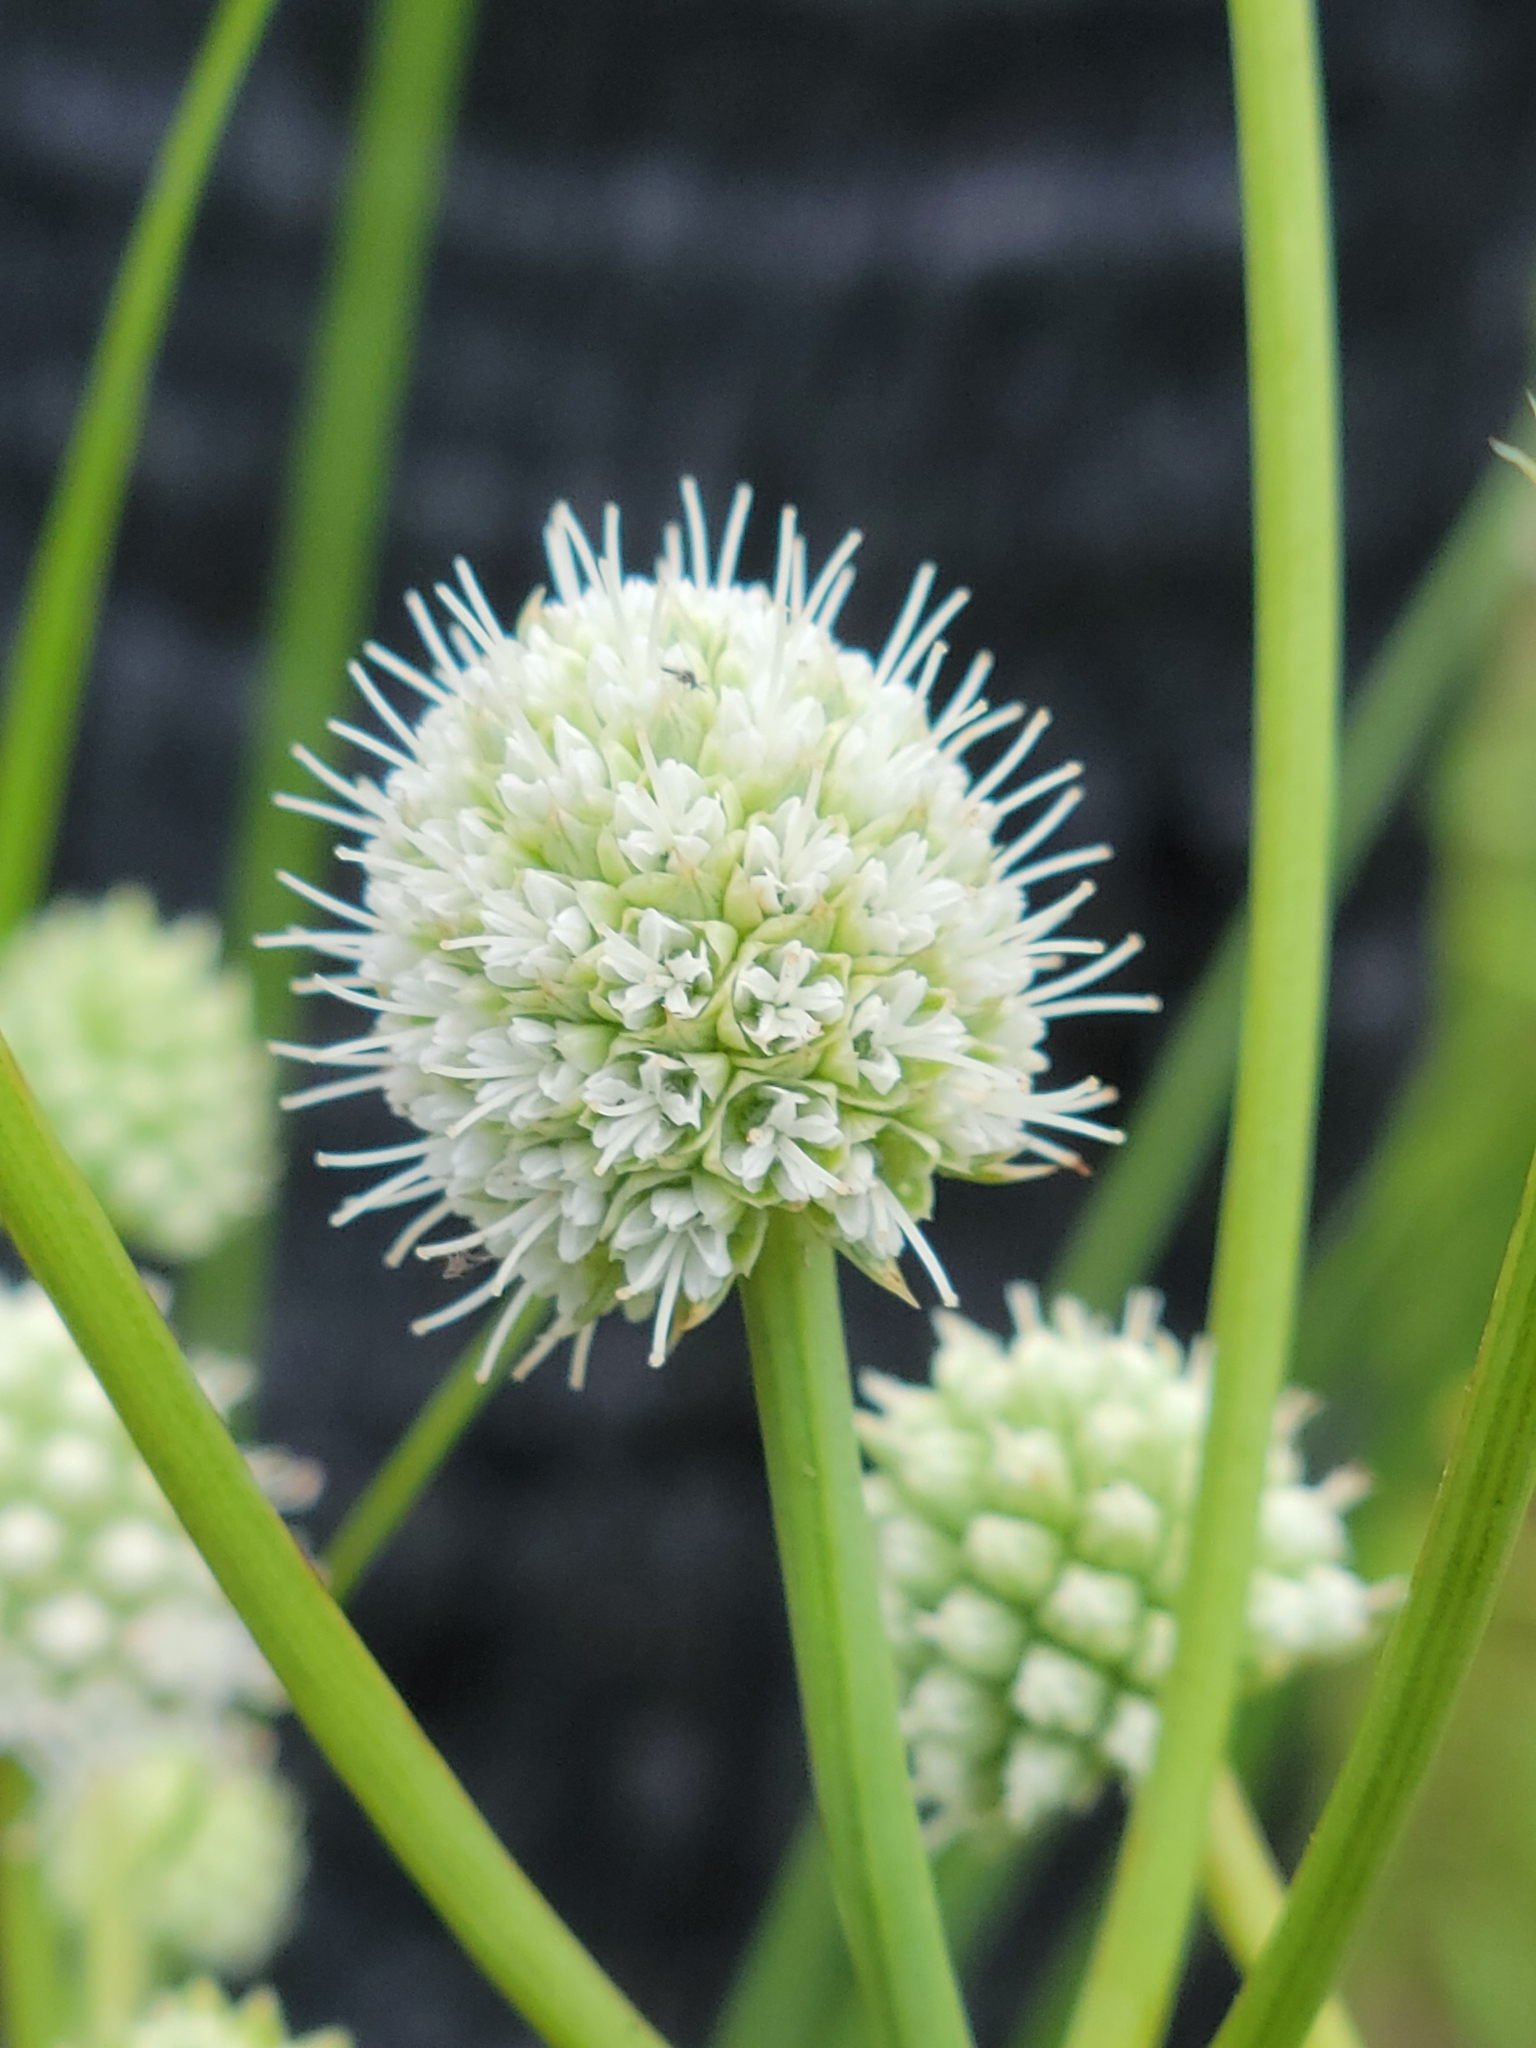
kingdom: Plantae
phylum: Tracheophyta
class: Magnoliopsida
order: Apiales
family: Apiaceae
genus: Eryngium
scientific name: Eryngium yuccifolium
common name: Button eryngo
